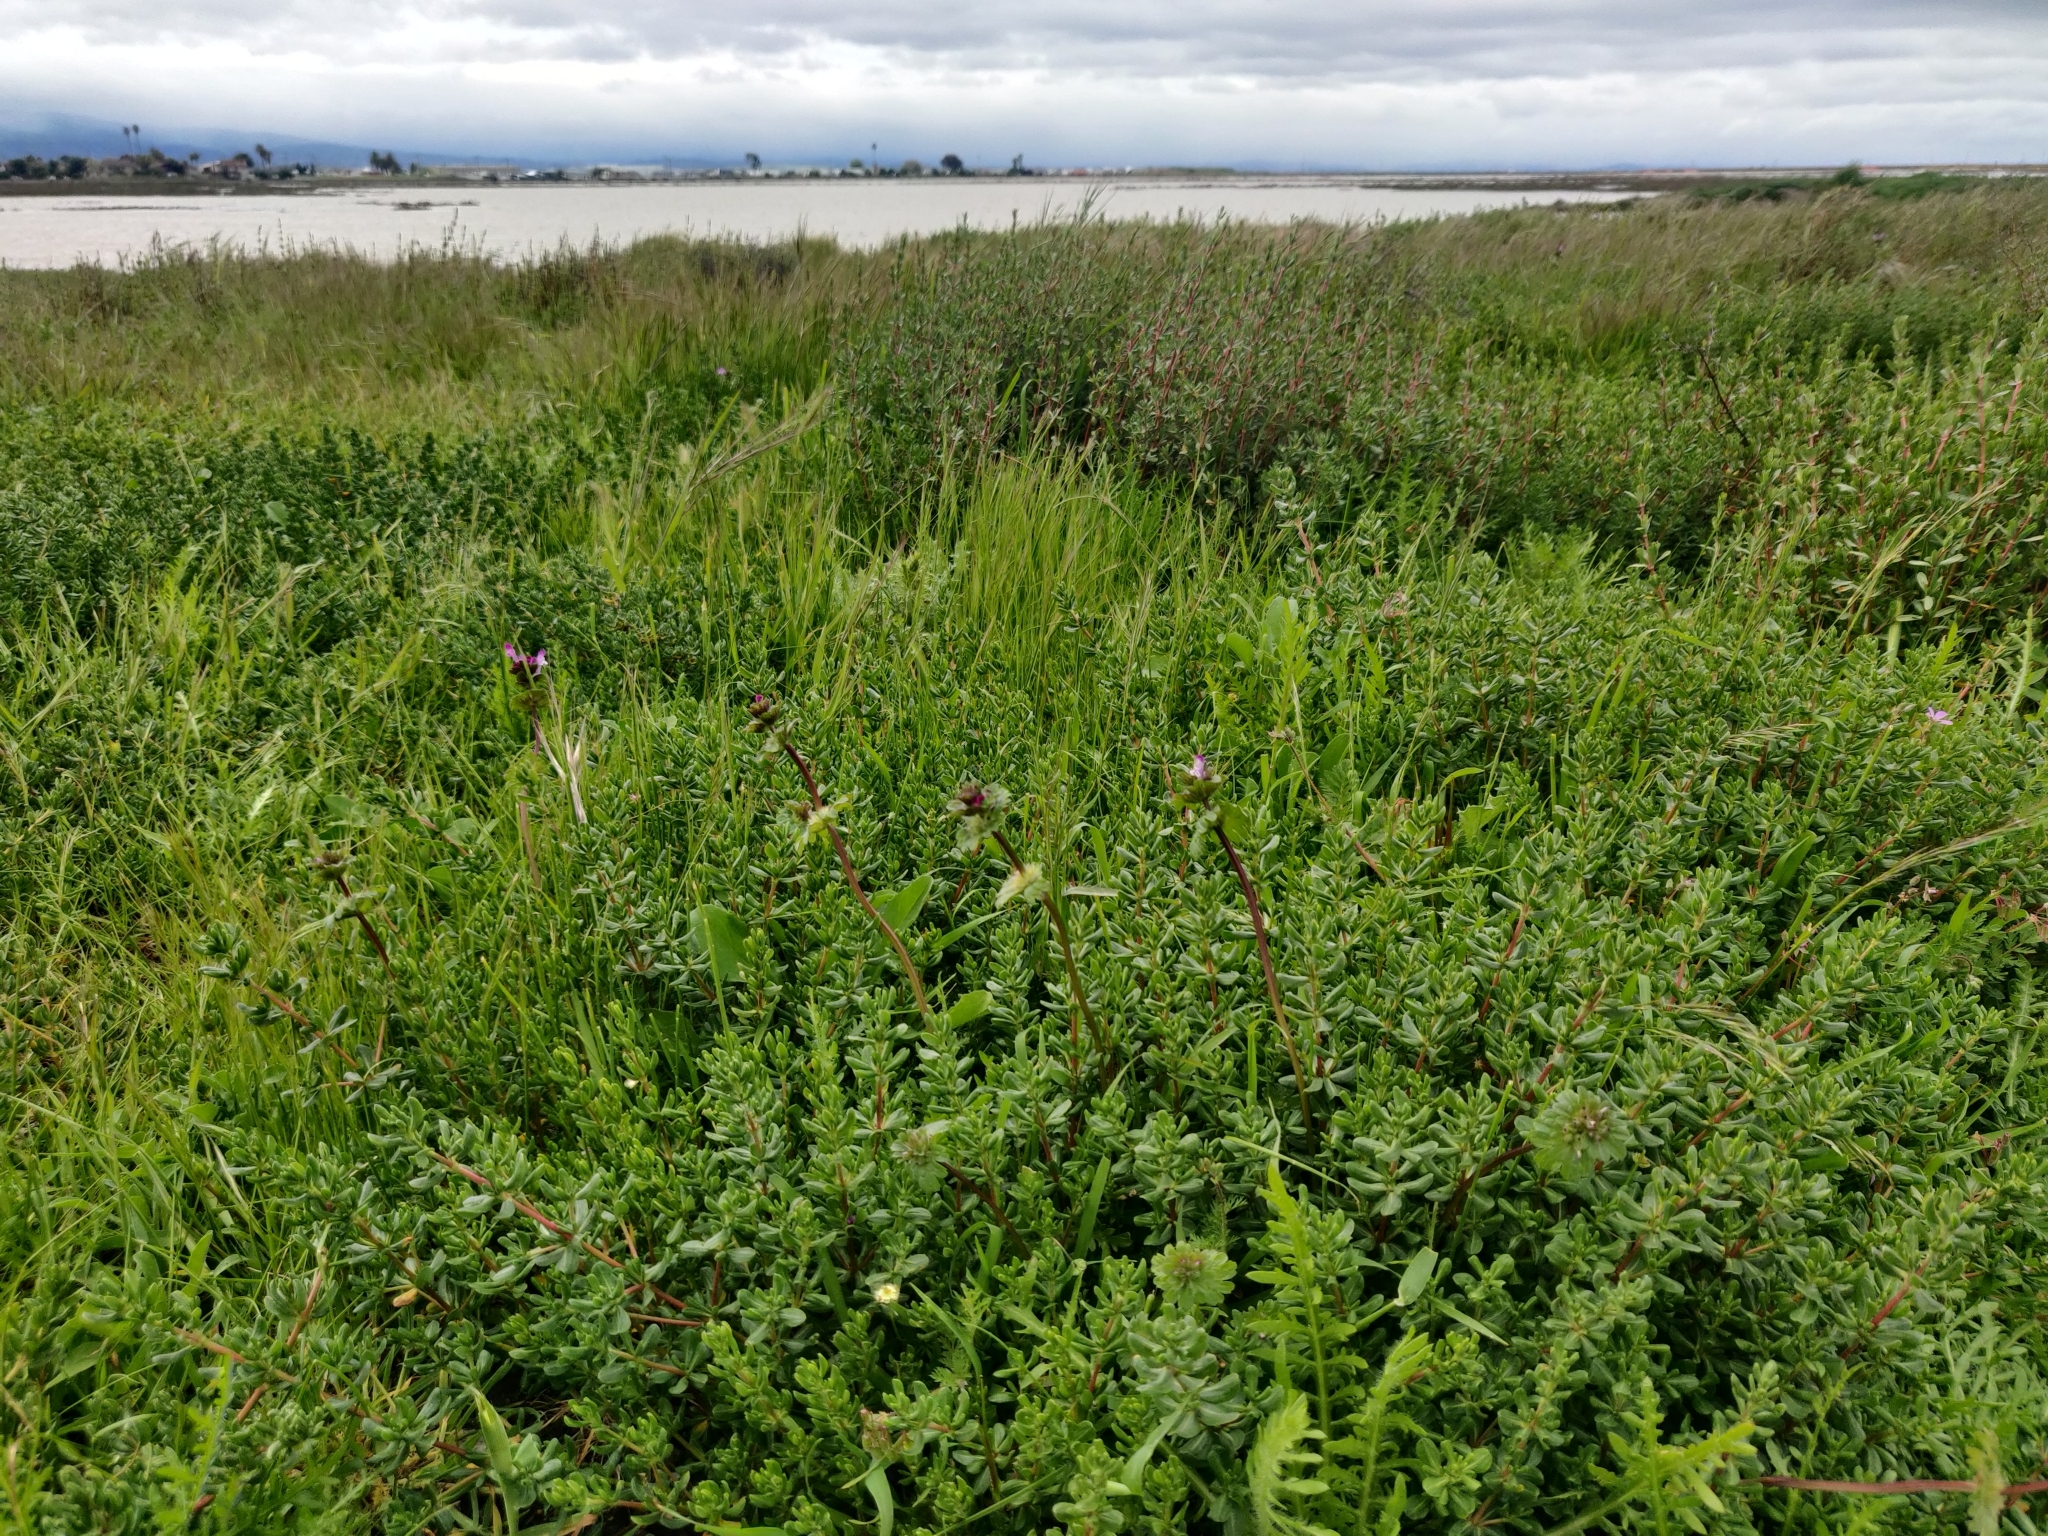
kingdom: Plantae
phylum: Tracheophyta
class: Magnoliopsida
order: Lamiales
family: Lamiaceae
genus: Lamium
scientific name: Lamium amplexicaule
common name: Henbit dead-nettle
